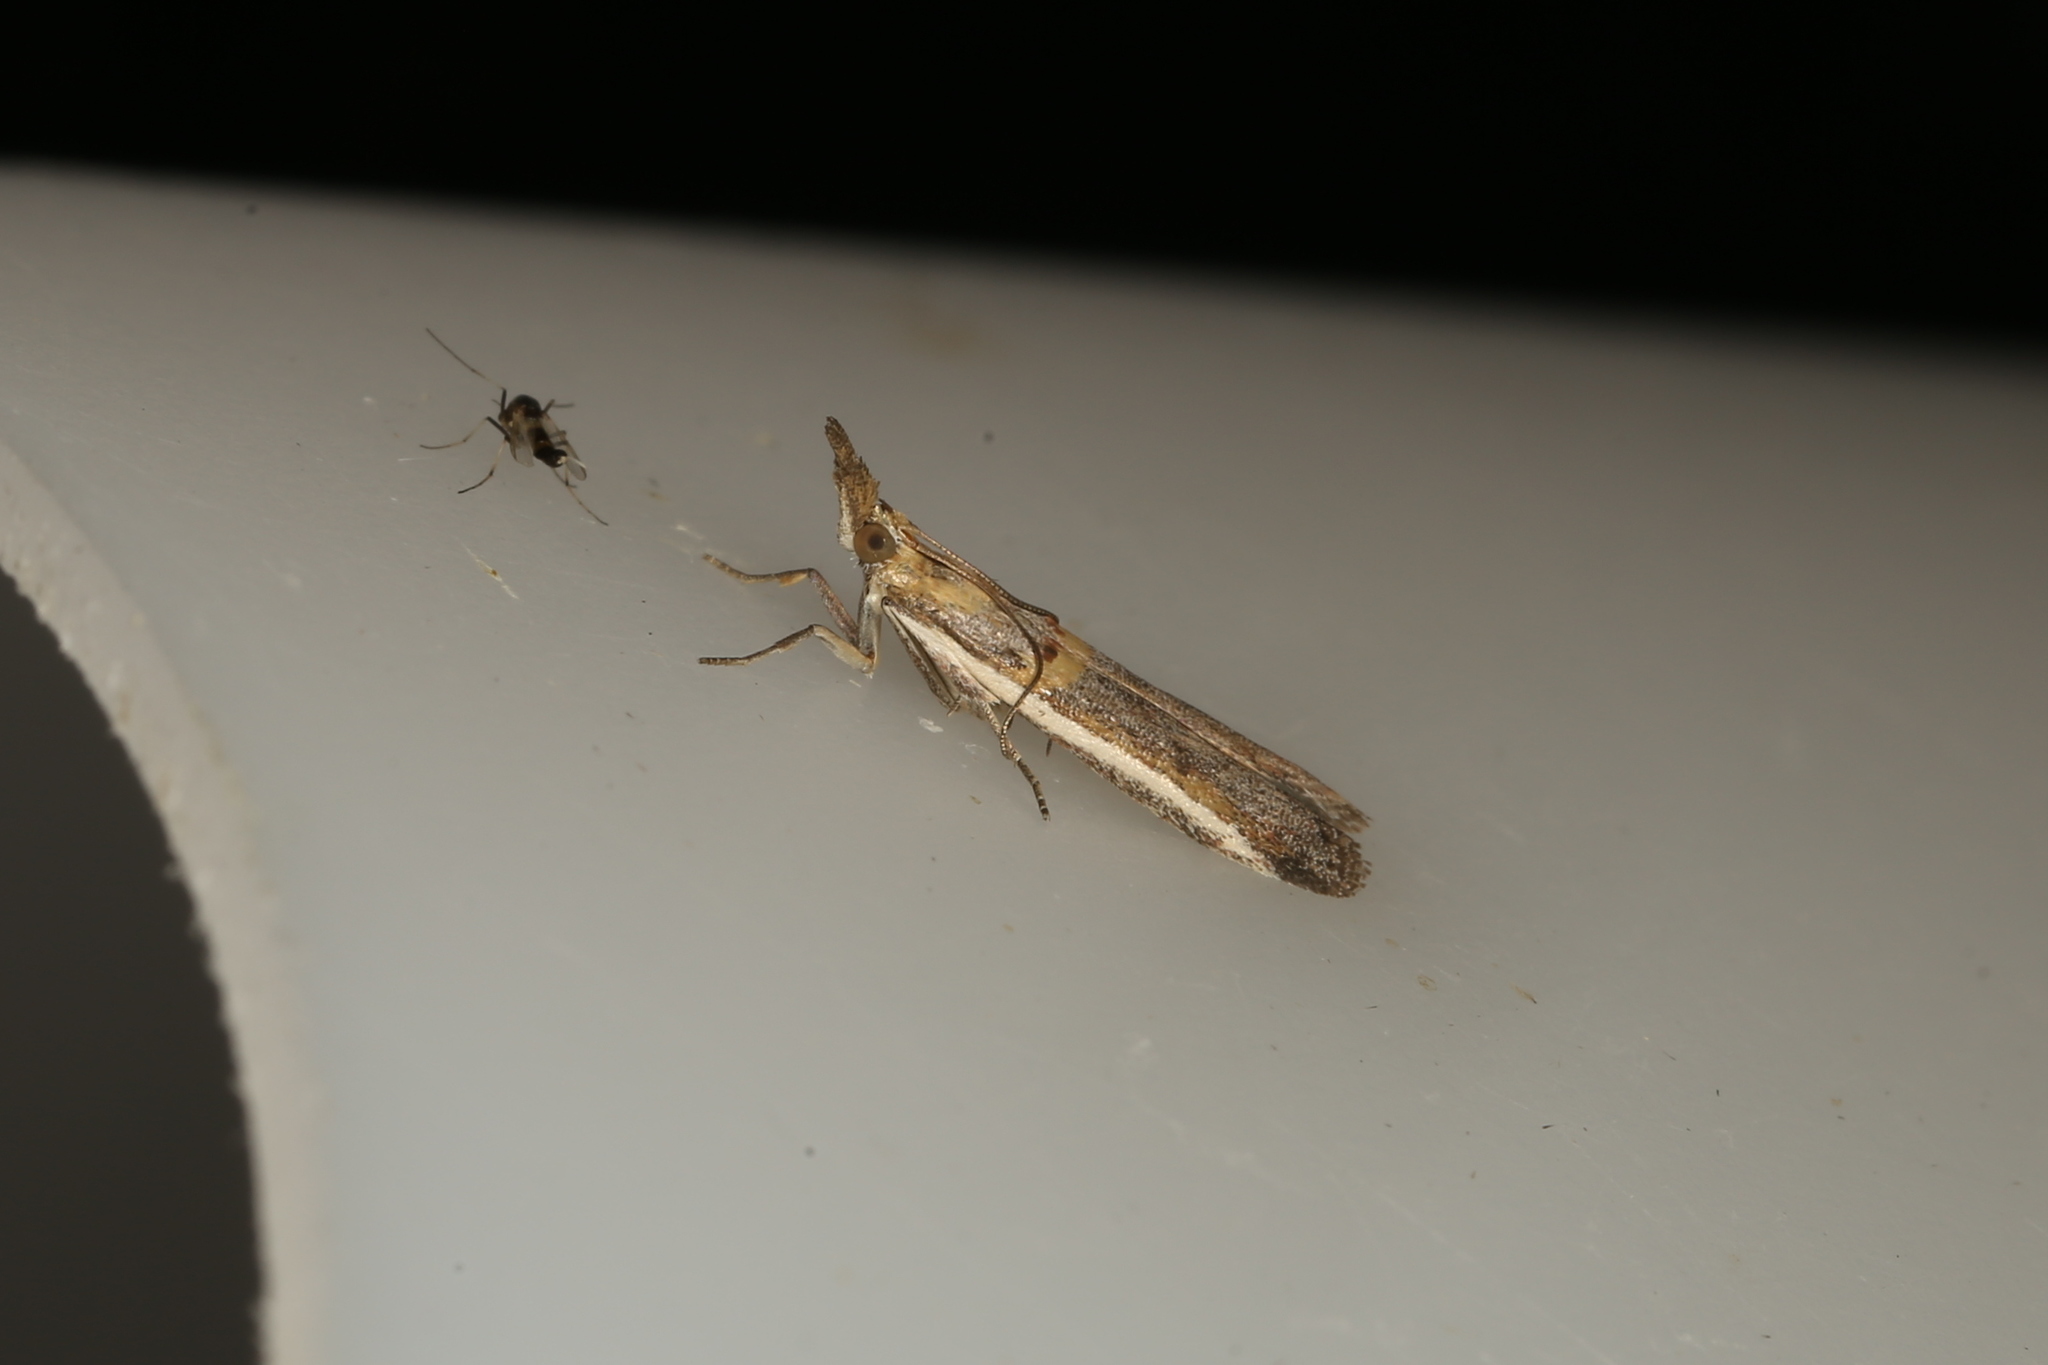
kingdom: Animalia
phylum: Arthropoda
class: Insecta
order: Lepidoptera
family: Pyralidae
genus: Etiella
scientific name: Etiella behrii
